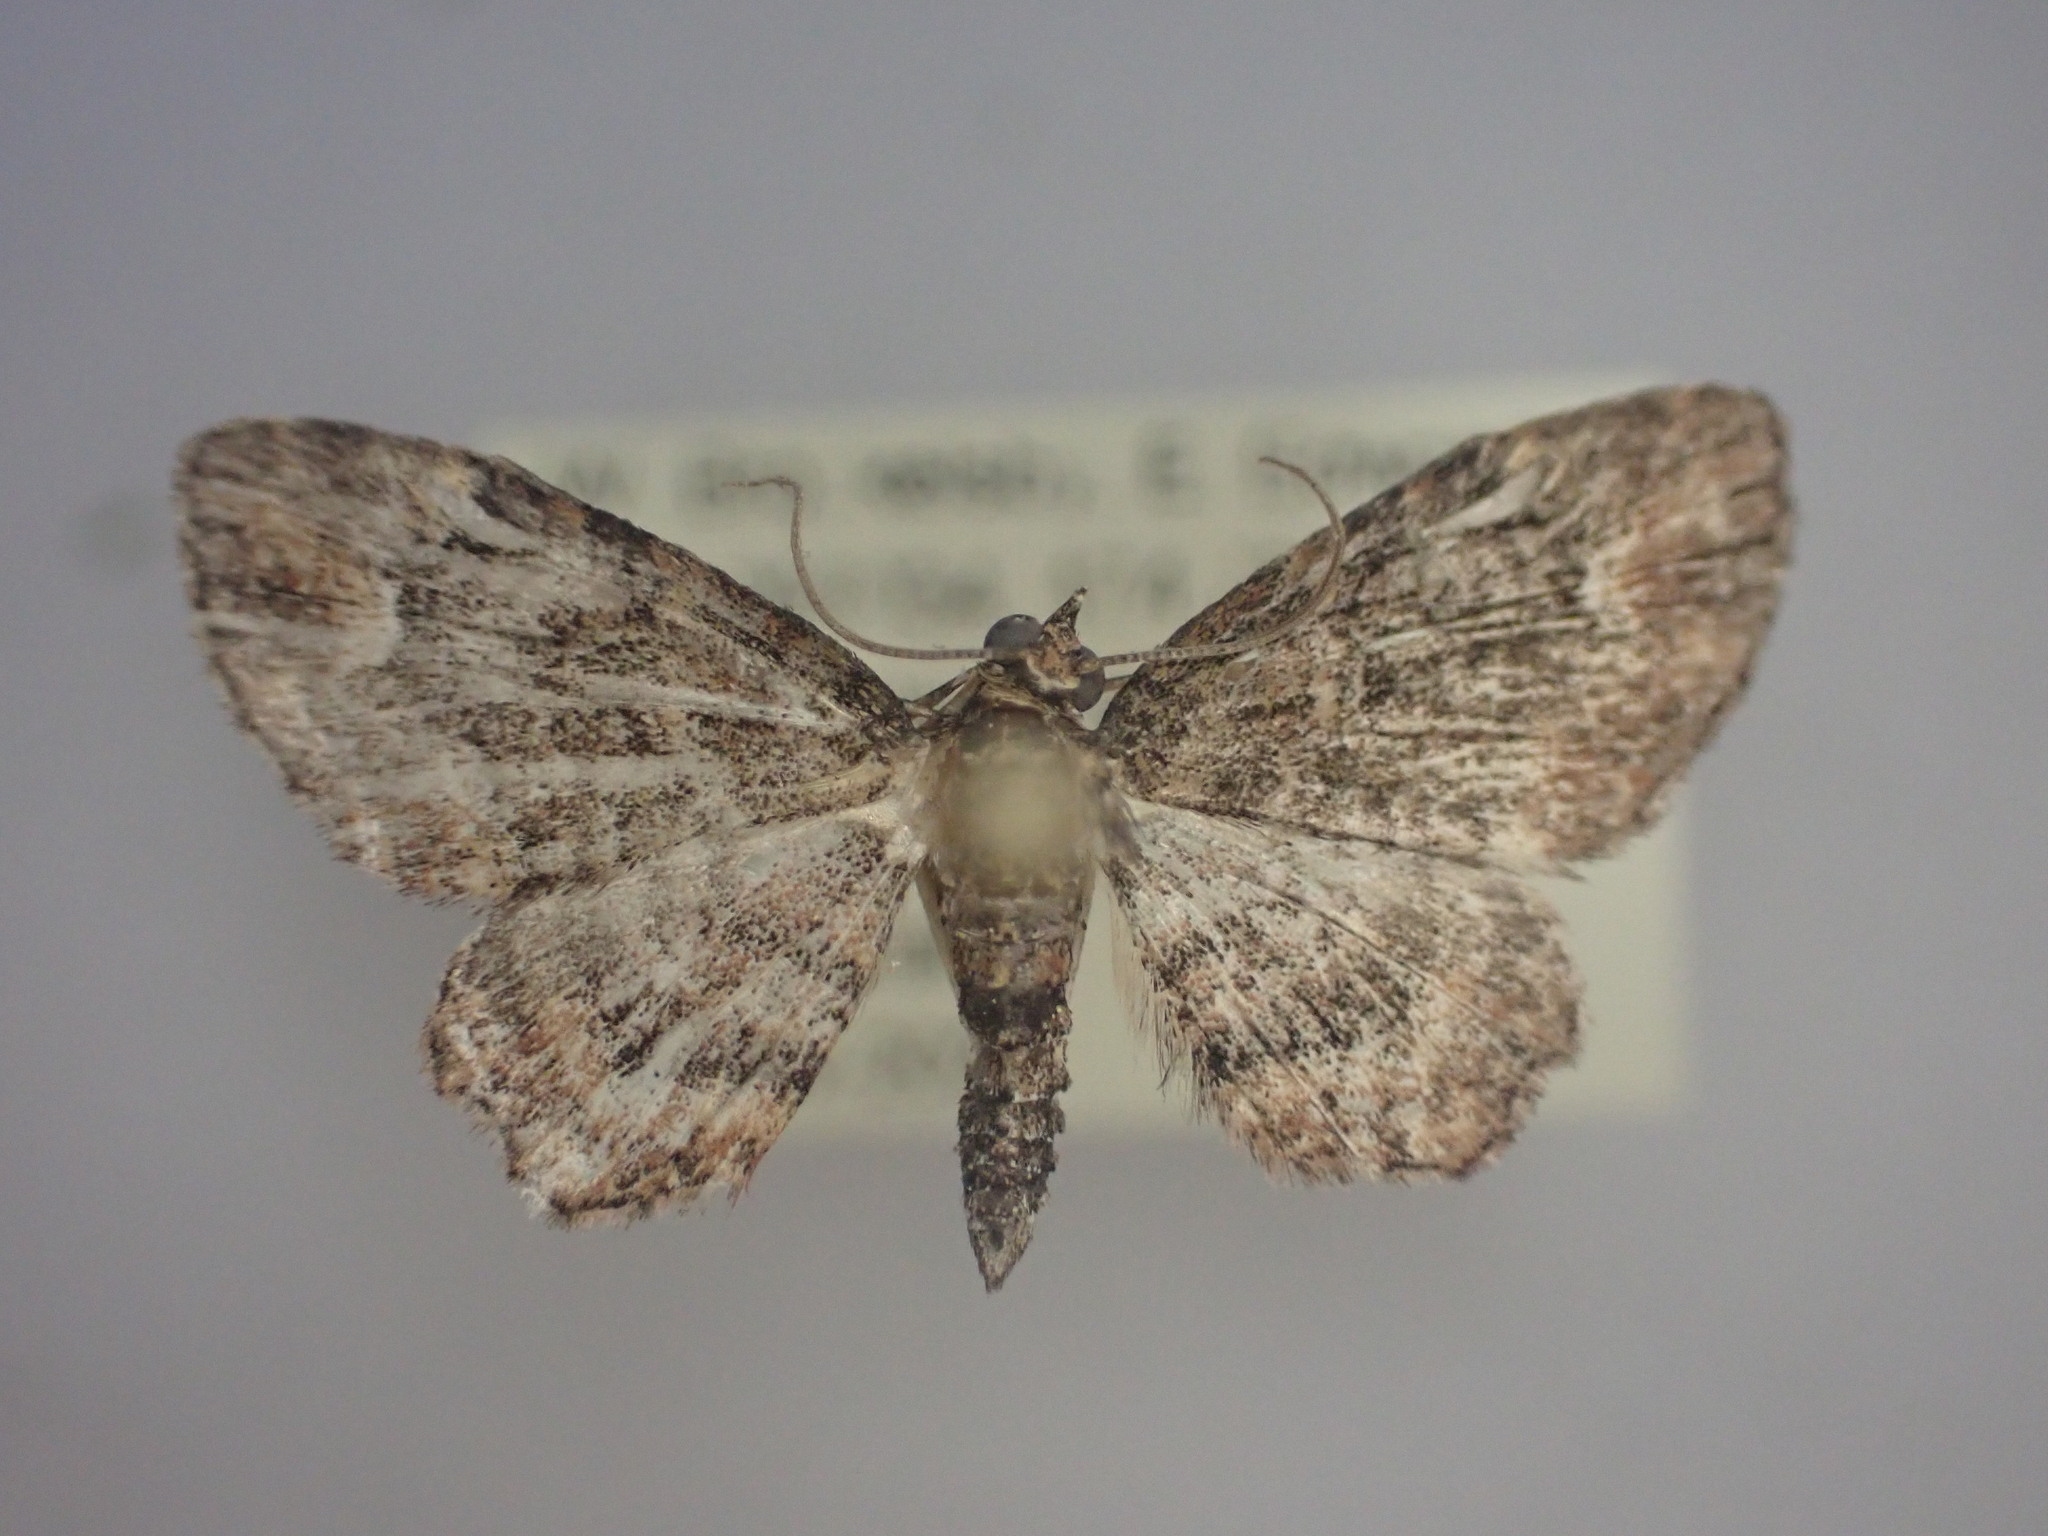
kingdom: Animalia
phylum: Arthropoda
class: Insecta
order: Lepidoptera
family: Geometridae
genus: Pasiphilodes
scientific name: Pasiphilodes testulata
